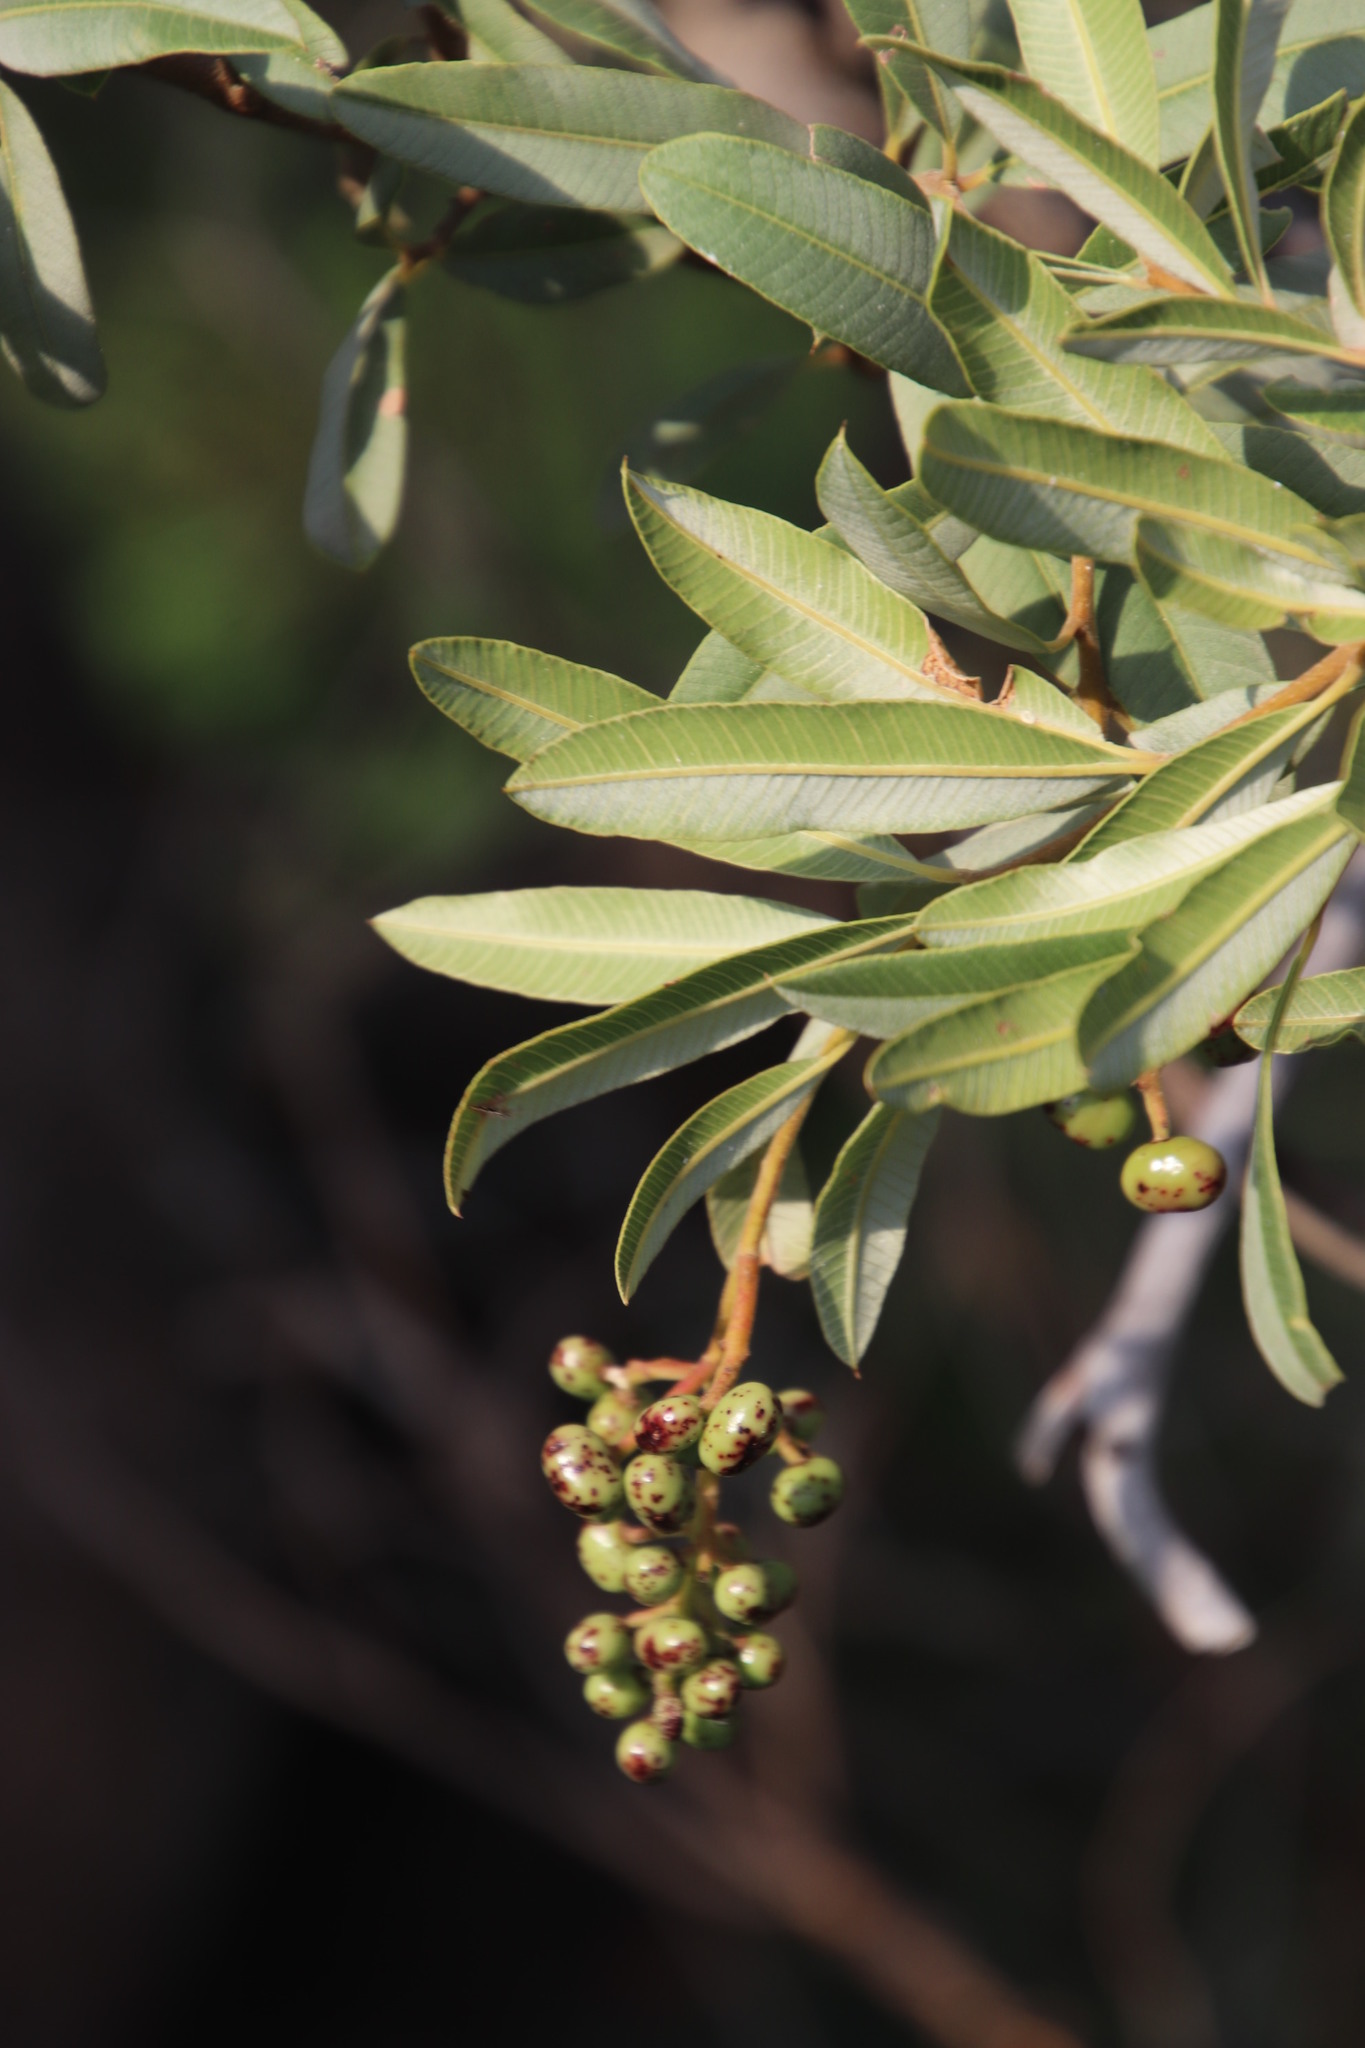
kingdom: Plantae
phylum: Tracheophyta
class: Magnoliopsida
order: Sapindales
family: Anacardiaceae
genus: Ozoroa
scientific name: Ozoroa paniculosa
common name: Bushveld ozoroa
